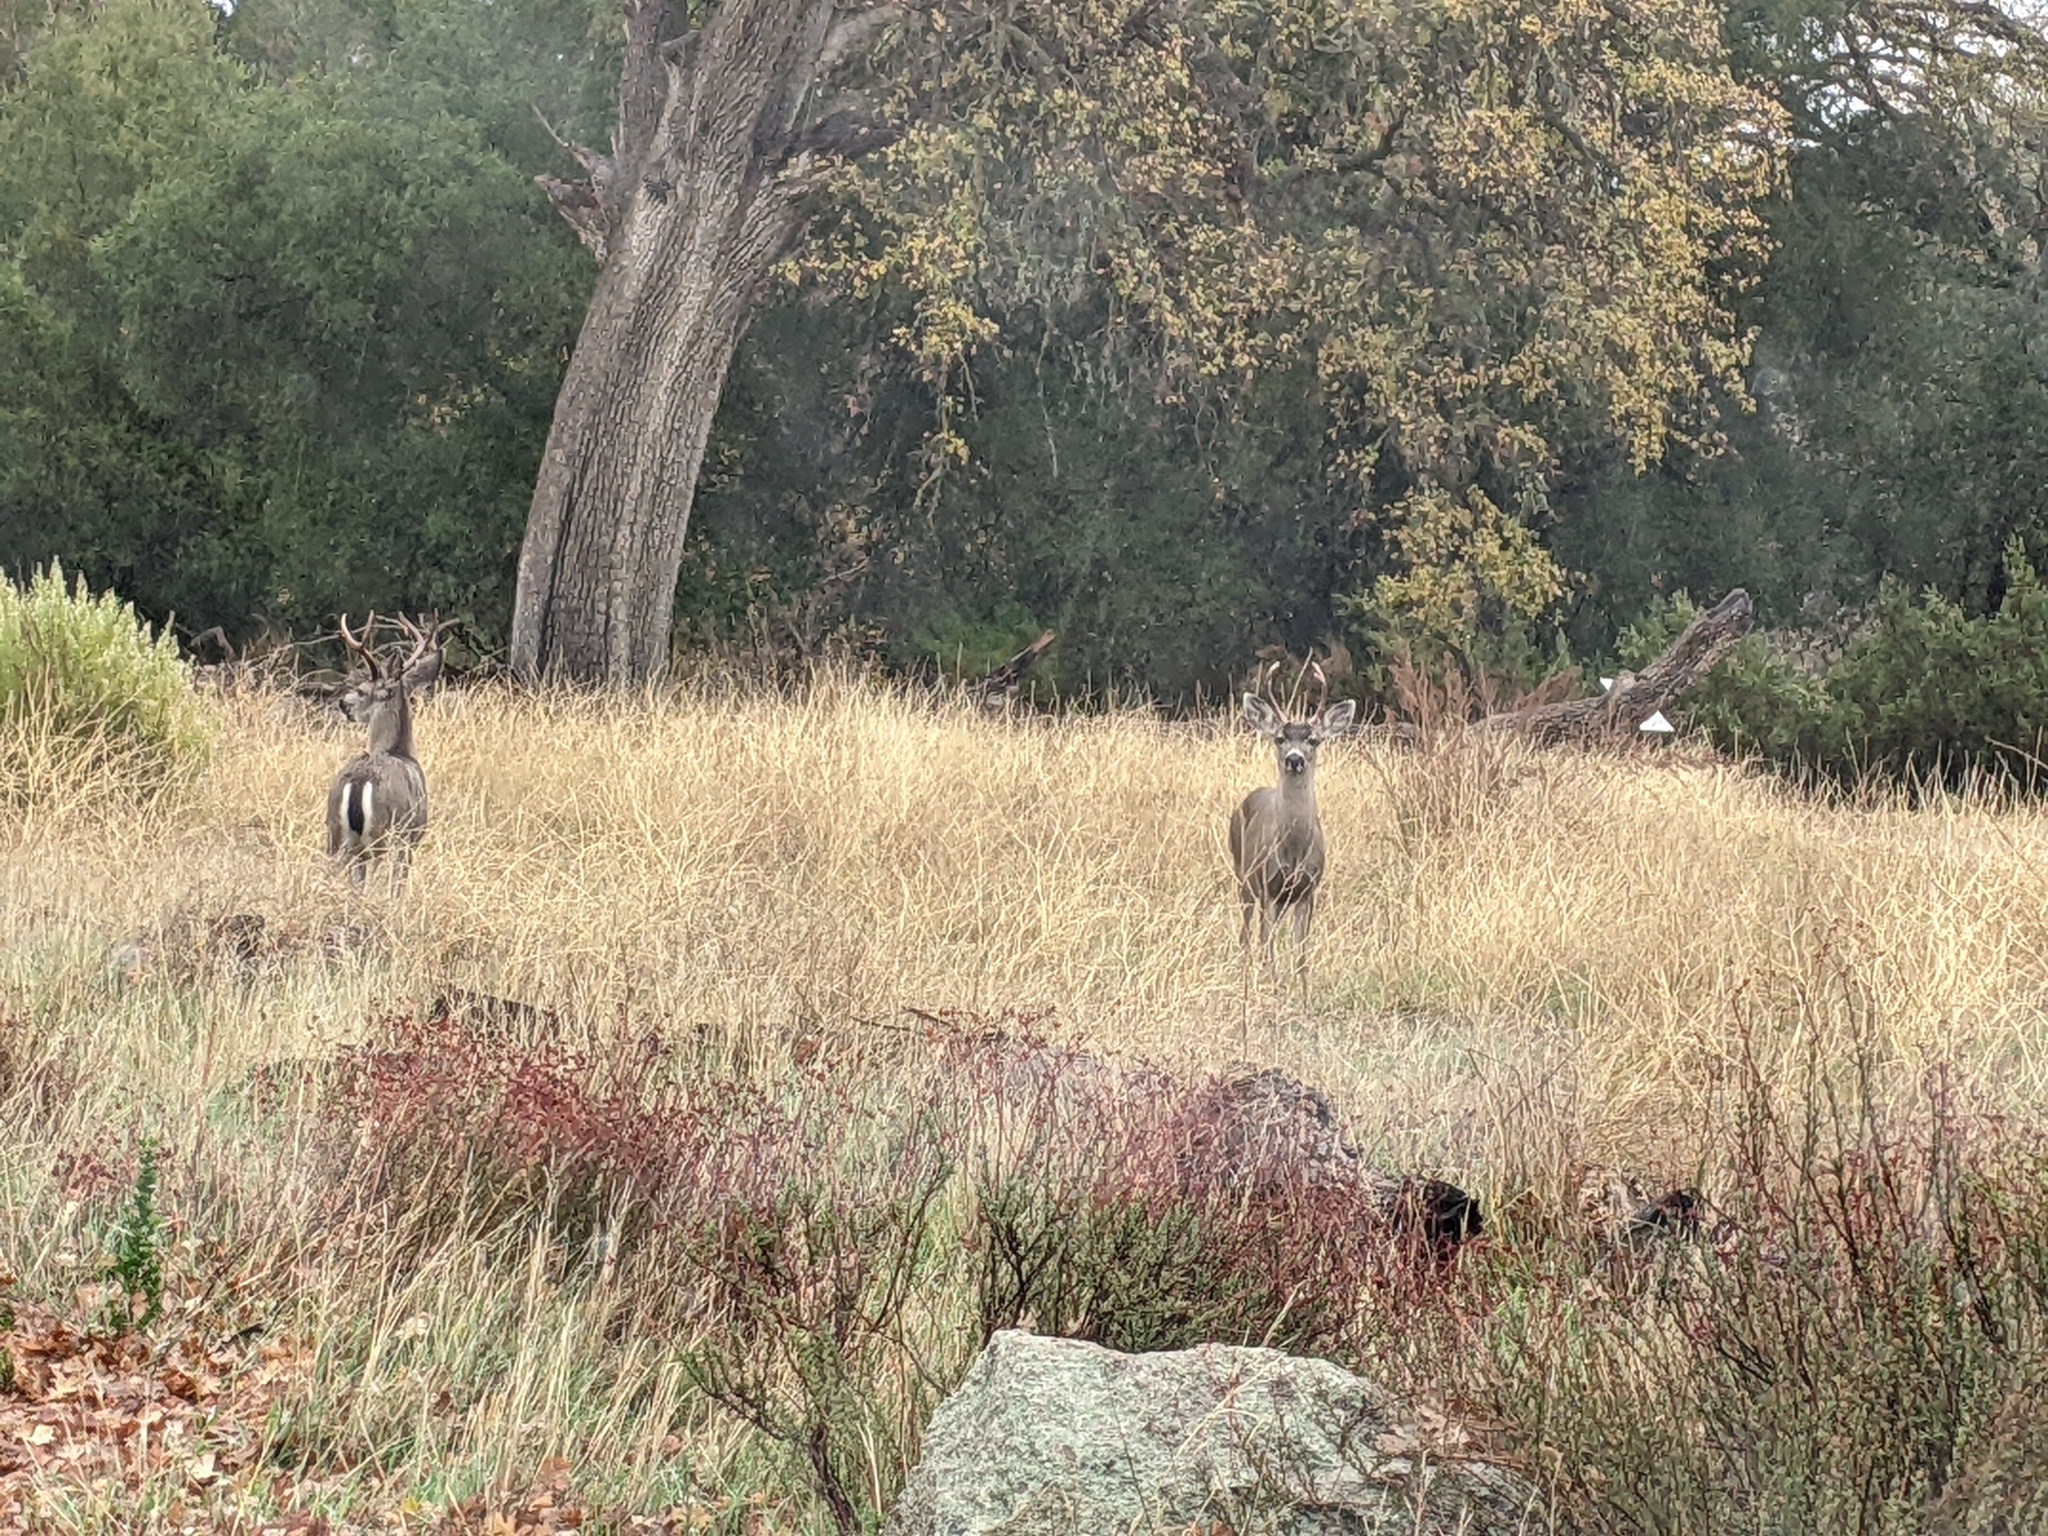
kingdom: Animalia
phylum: Chordata
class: Mammalia
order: Artiodactyla
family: Cervidae
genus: Odocoileus
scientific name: Odocoileus hemionus
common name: Mule deer
